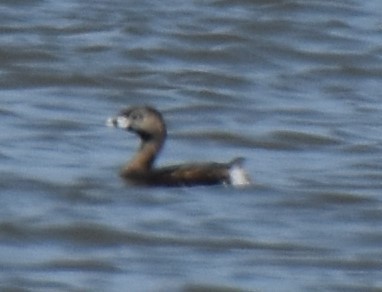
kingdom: Animalia
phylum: Chordata
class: Aves
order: Podicipediformes
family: Podicipedidae
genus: Podilymbus
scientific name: Podilymbus podiceps
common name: Pied-billed grebe
